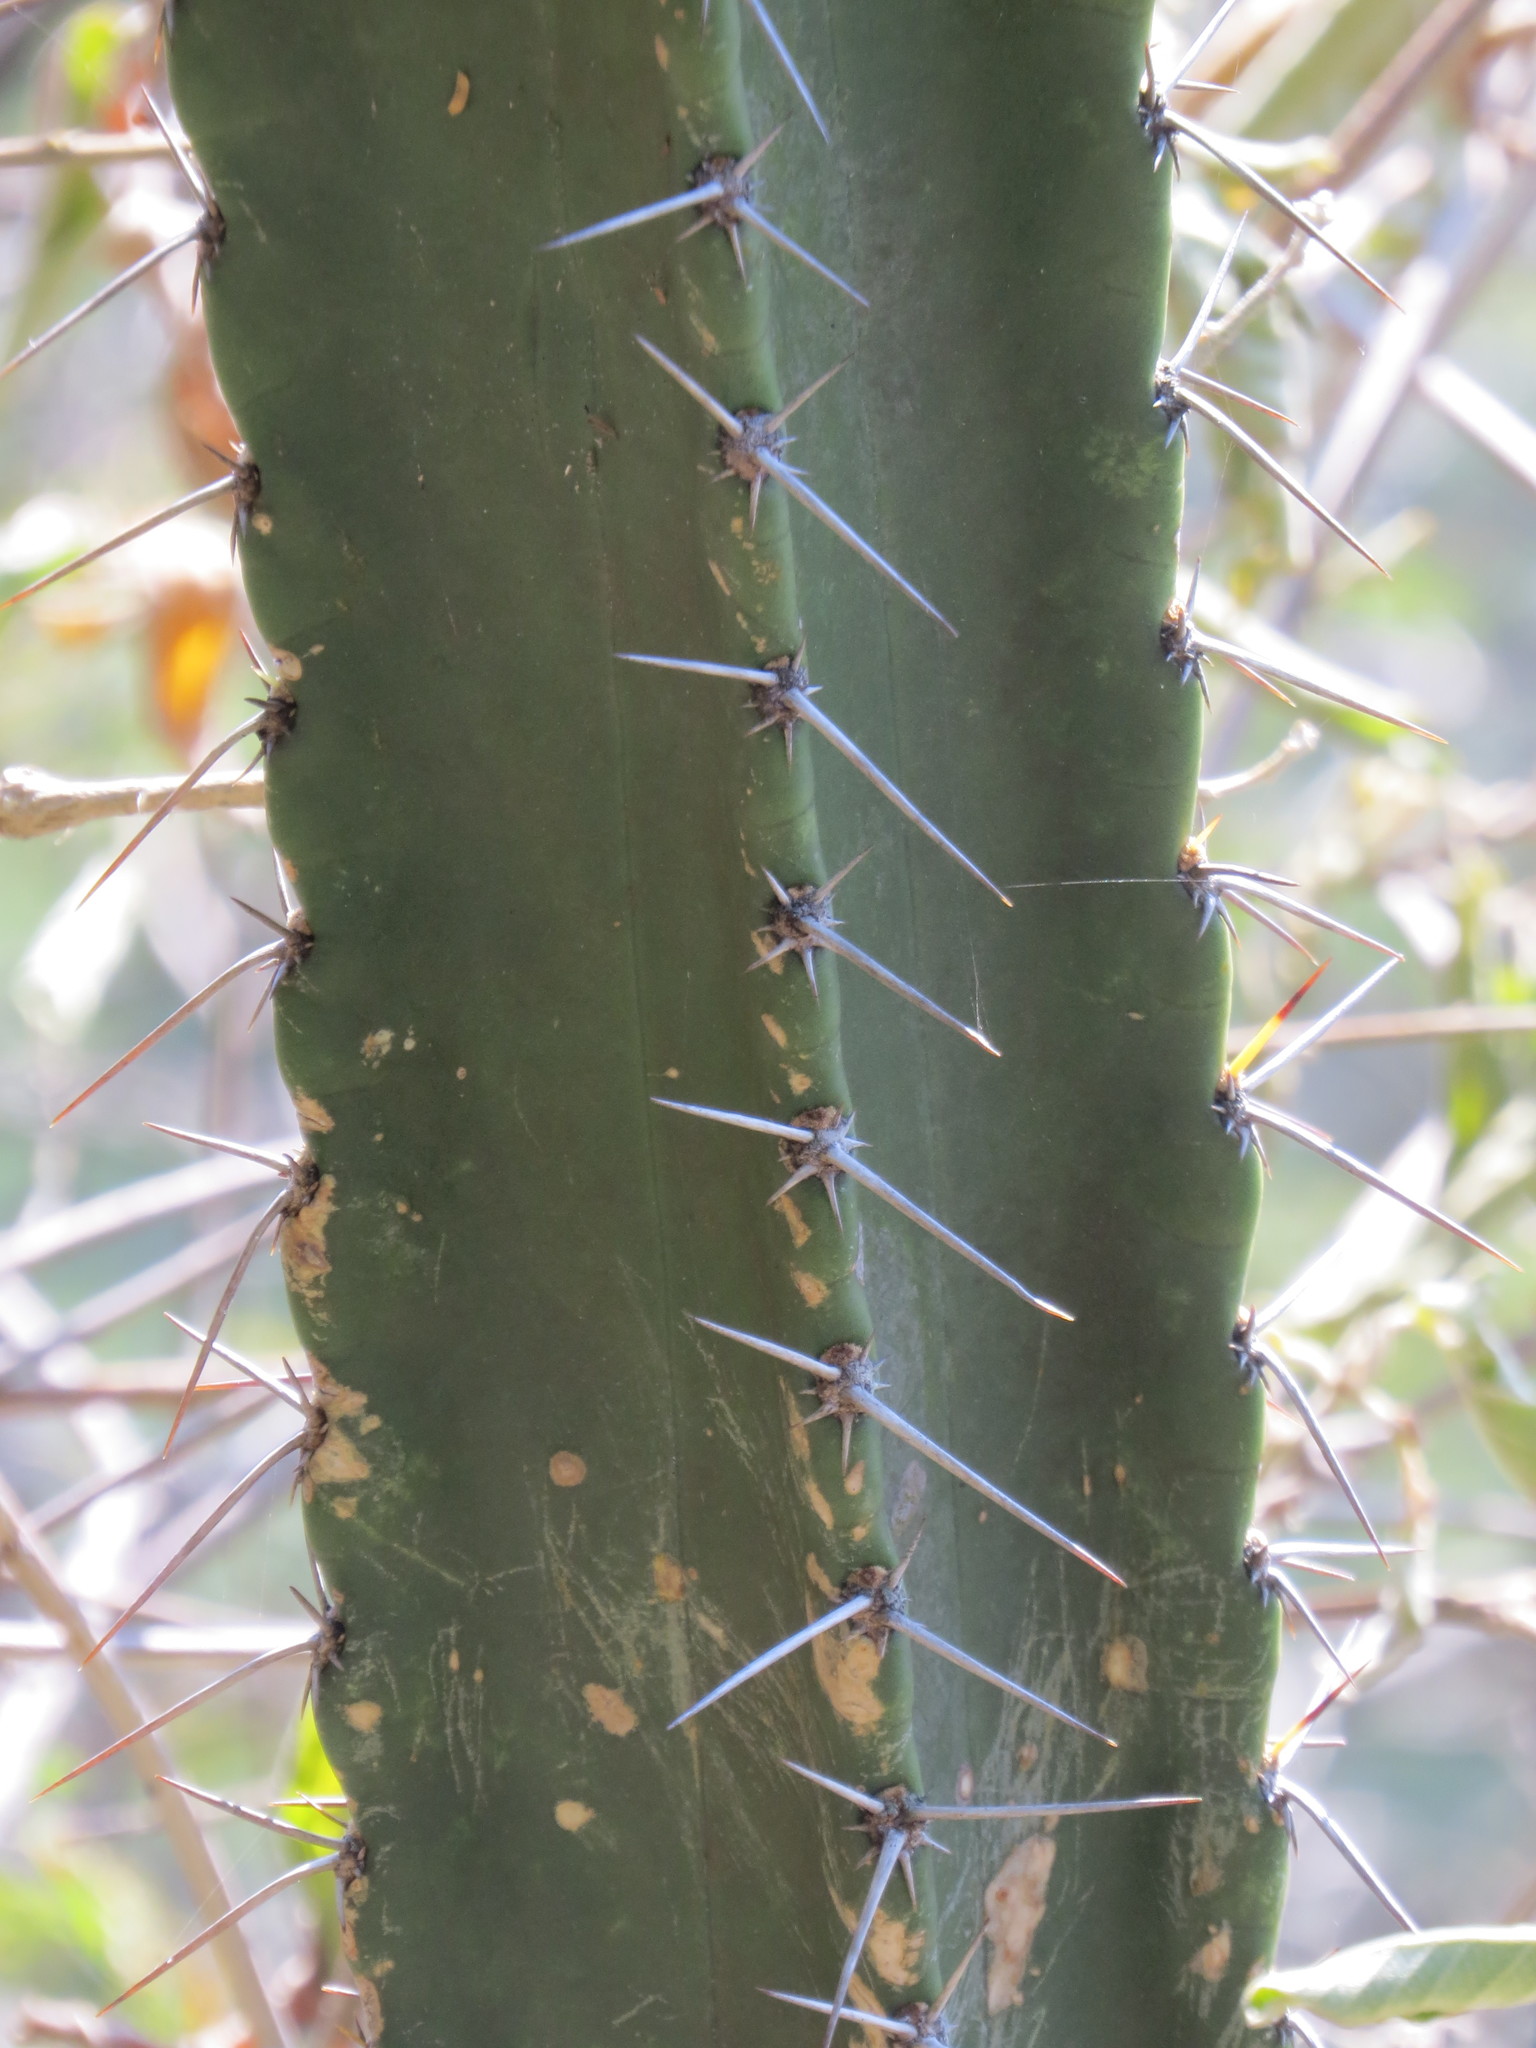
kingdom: Plantae
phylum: Tracheophyta
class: Magnoliopsida
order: Caryophyllales
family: Cactaceae
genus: Pilosocereus
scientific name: Pilosocereus brasiliensis
